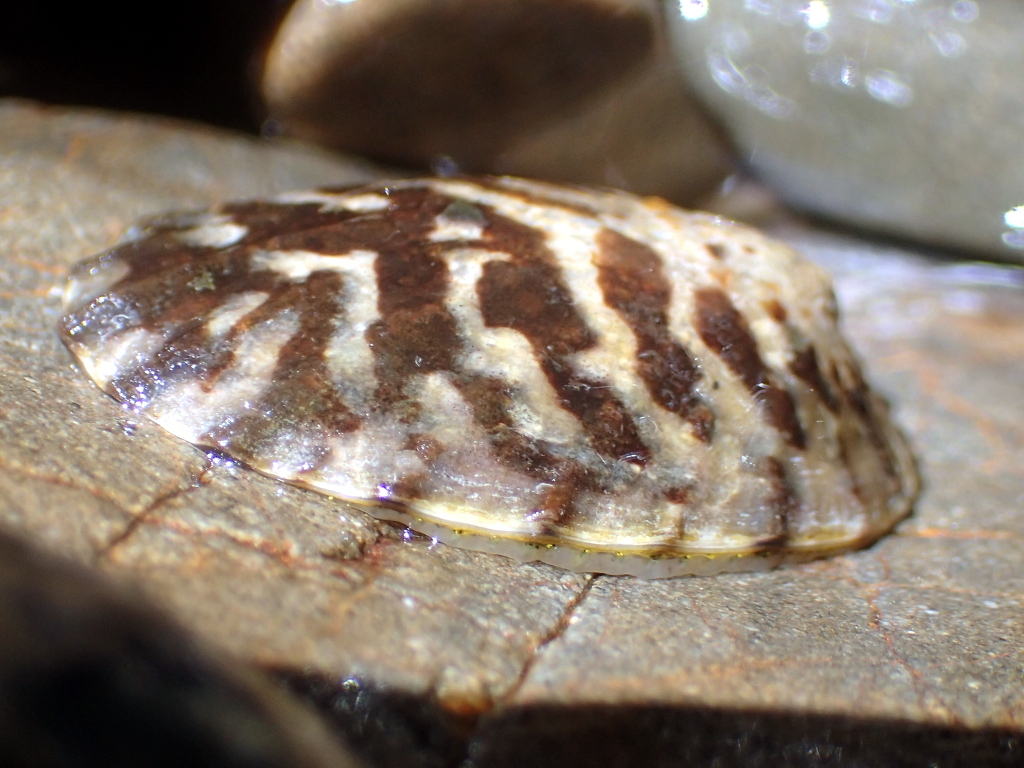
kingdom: Animalia
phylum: Mollusca
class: Gastropoda
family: Nacellidae
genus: Cellana
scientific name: Cellana radians
